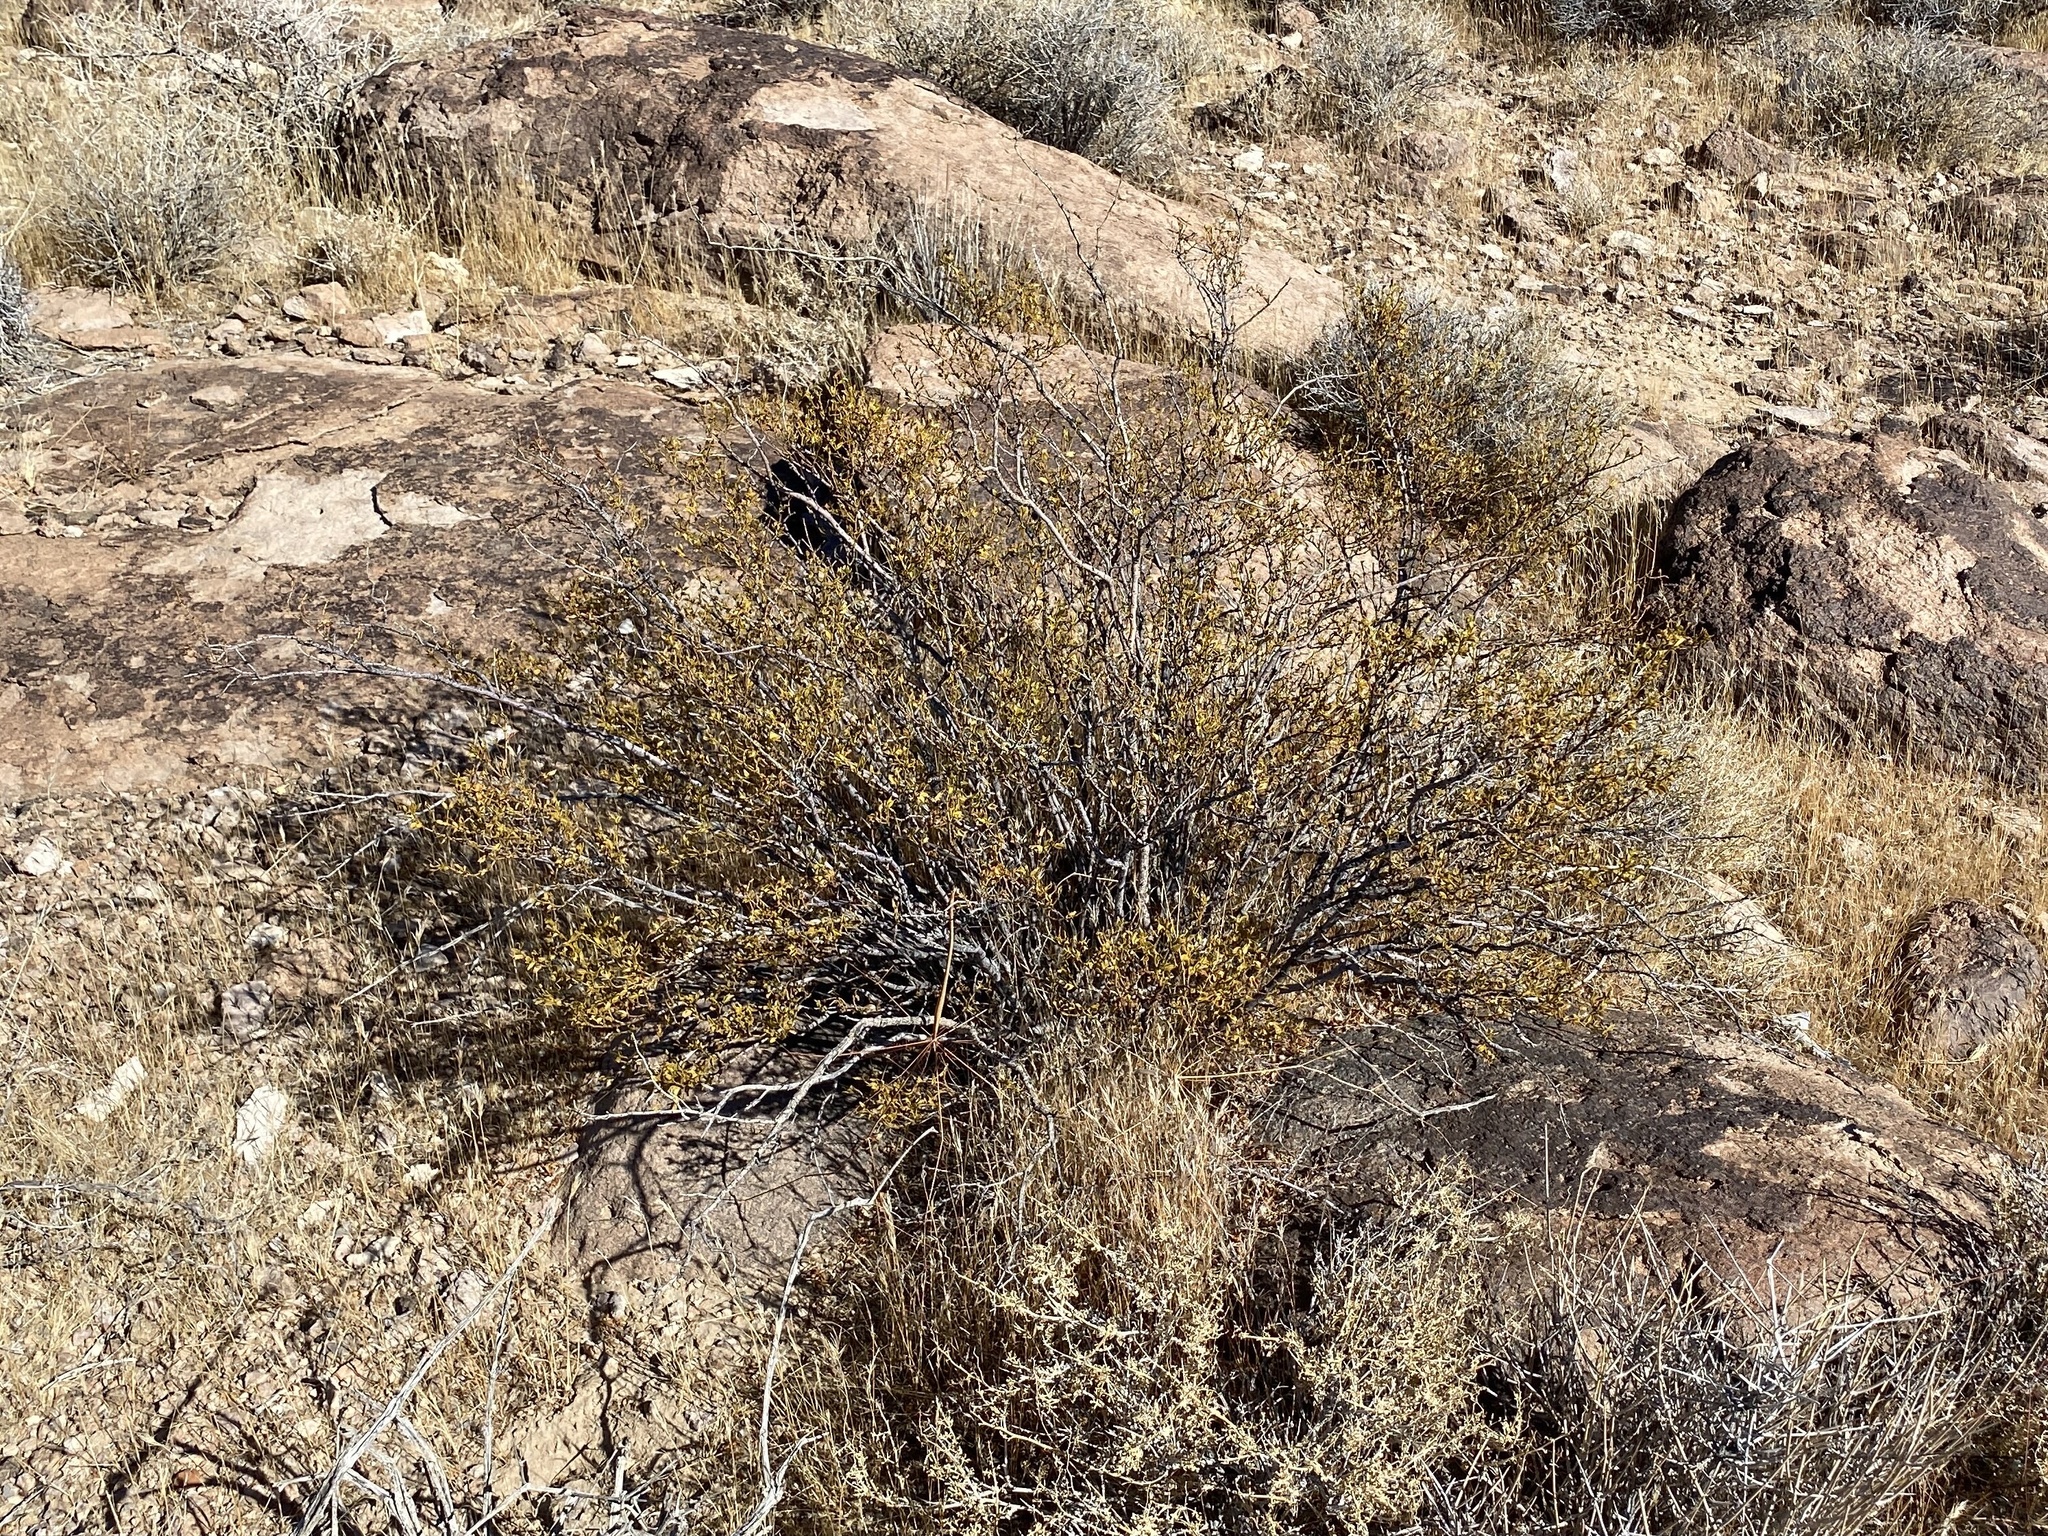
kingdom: Plantae
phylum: Tracheophyta
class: Magnoliopsida
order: Zygophyllales
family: Zygophyllaceae
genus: Larrea
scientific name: Larrea tridentata
